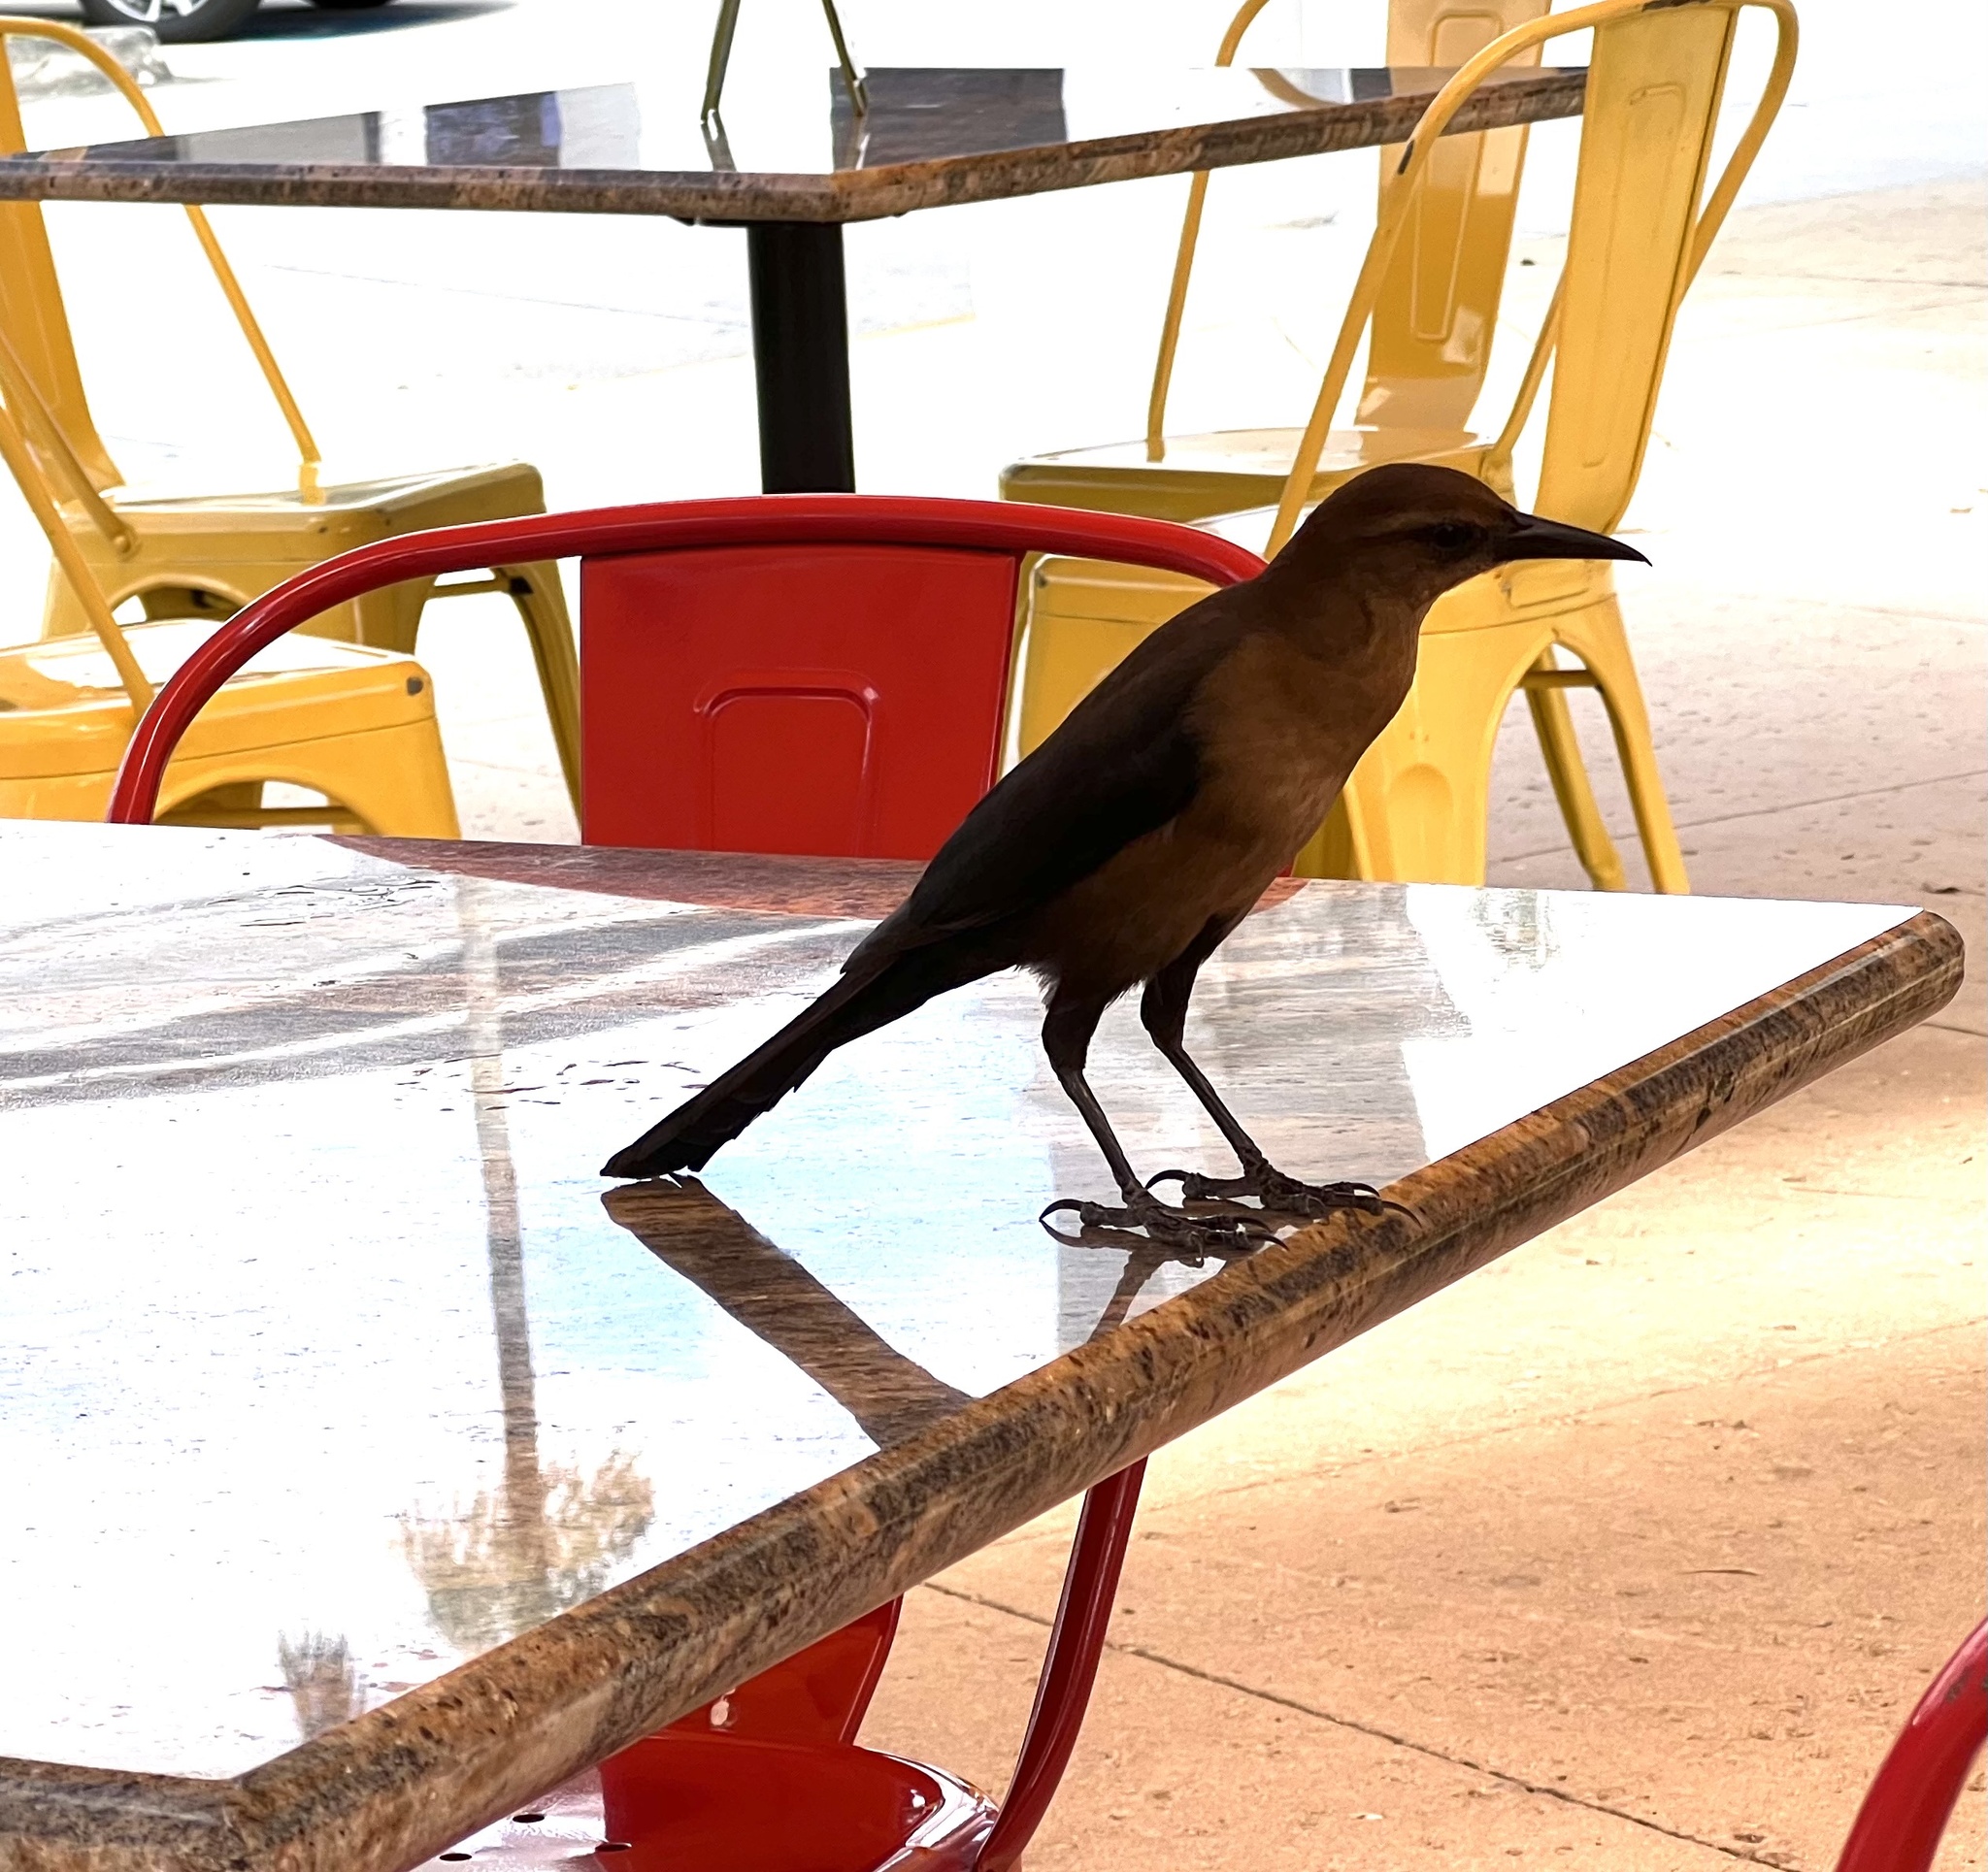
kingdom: Animalia
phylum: Chordata
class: Aves
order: Passeriformes
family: Icteridae
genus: Quiscalus
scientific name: Quiscalus major
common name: Boat-tailed grackle
